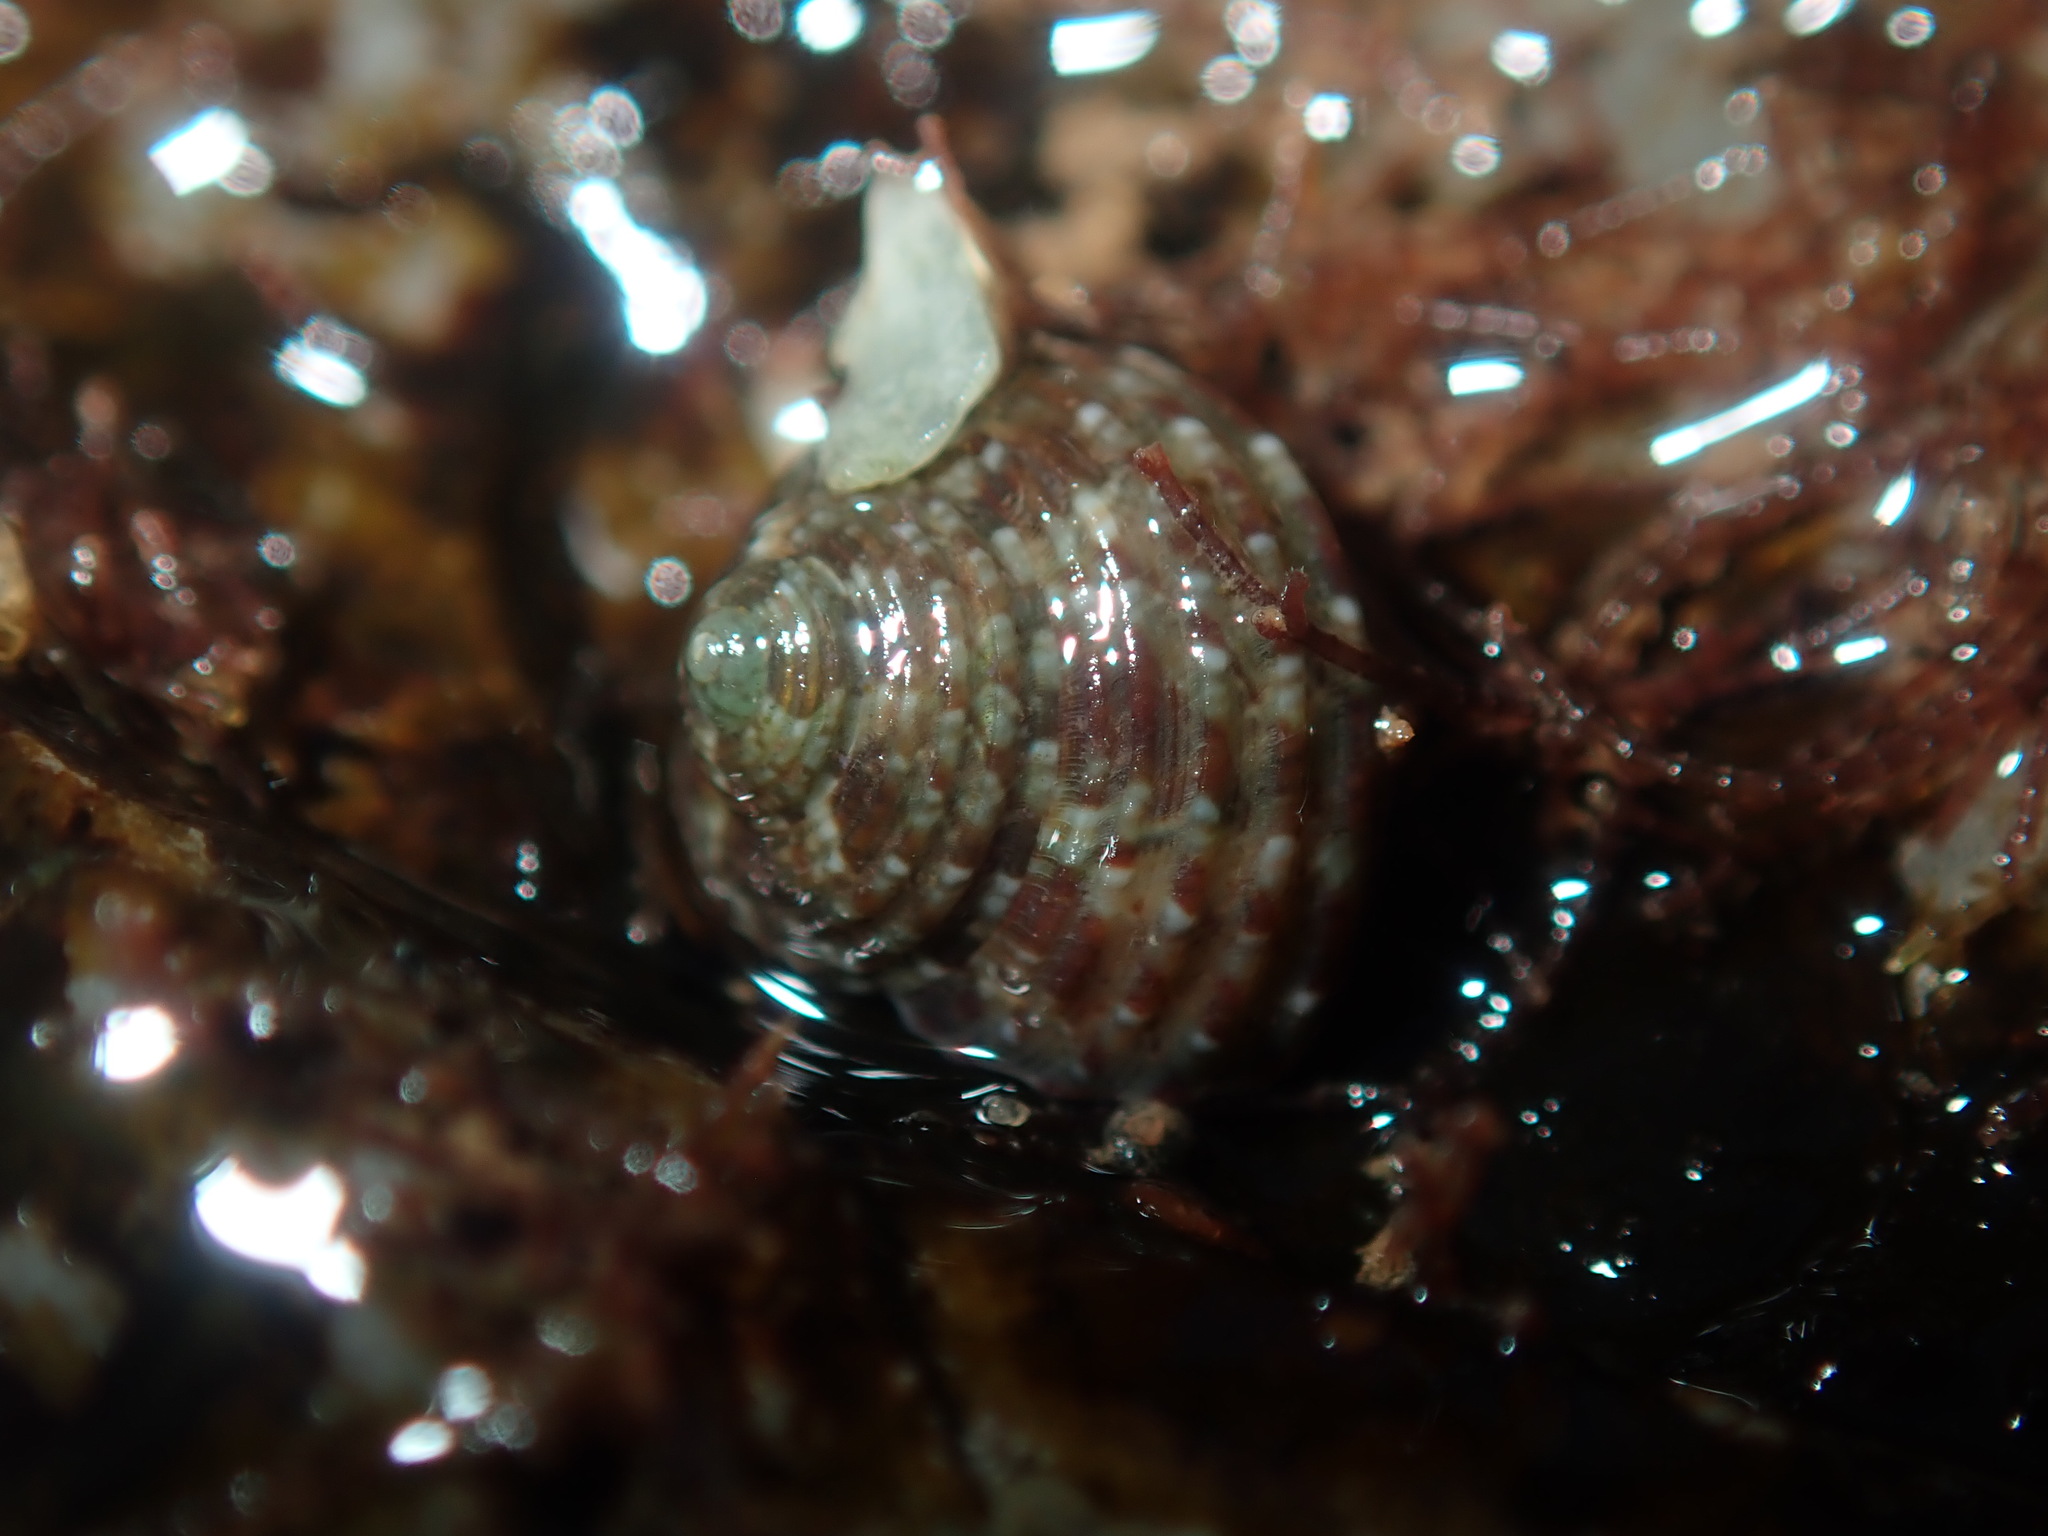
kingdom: Animalia
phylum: Mollusca
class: Gastropoda
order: Trochida
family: Trochidae
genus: Eurytrochus
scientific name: Eurytrochus strangei
